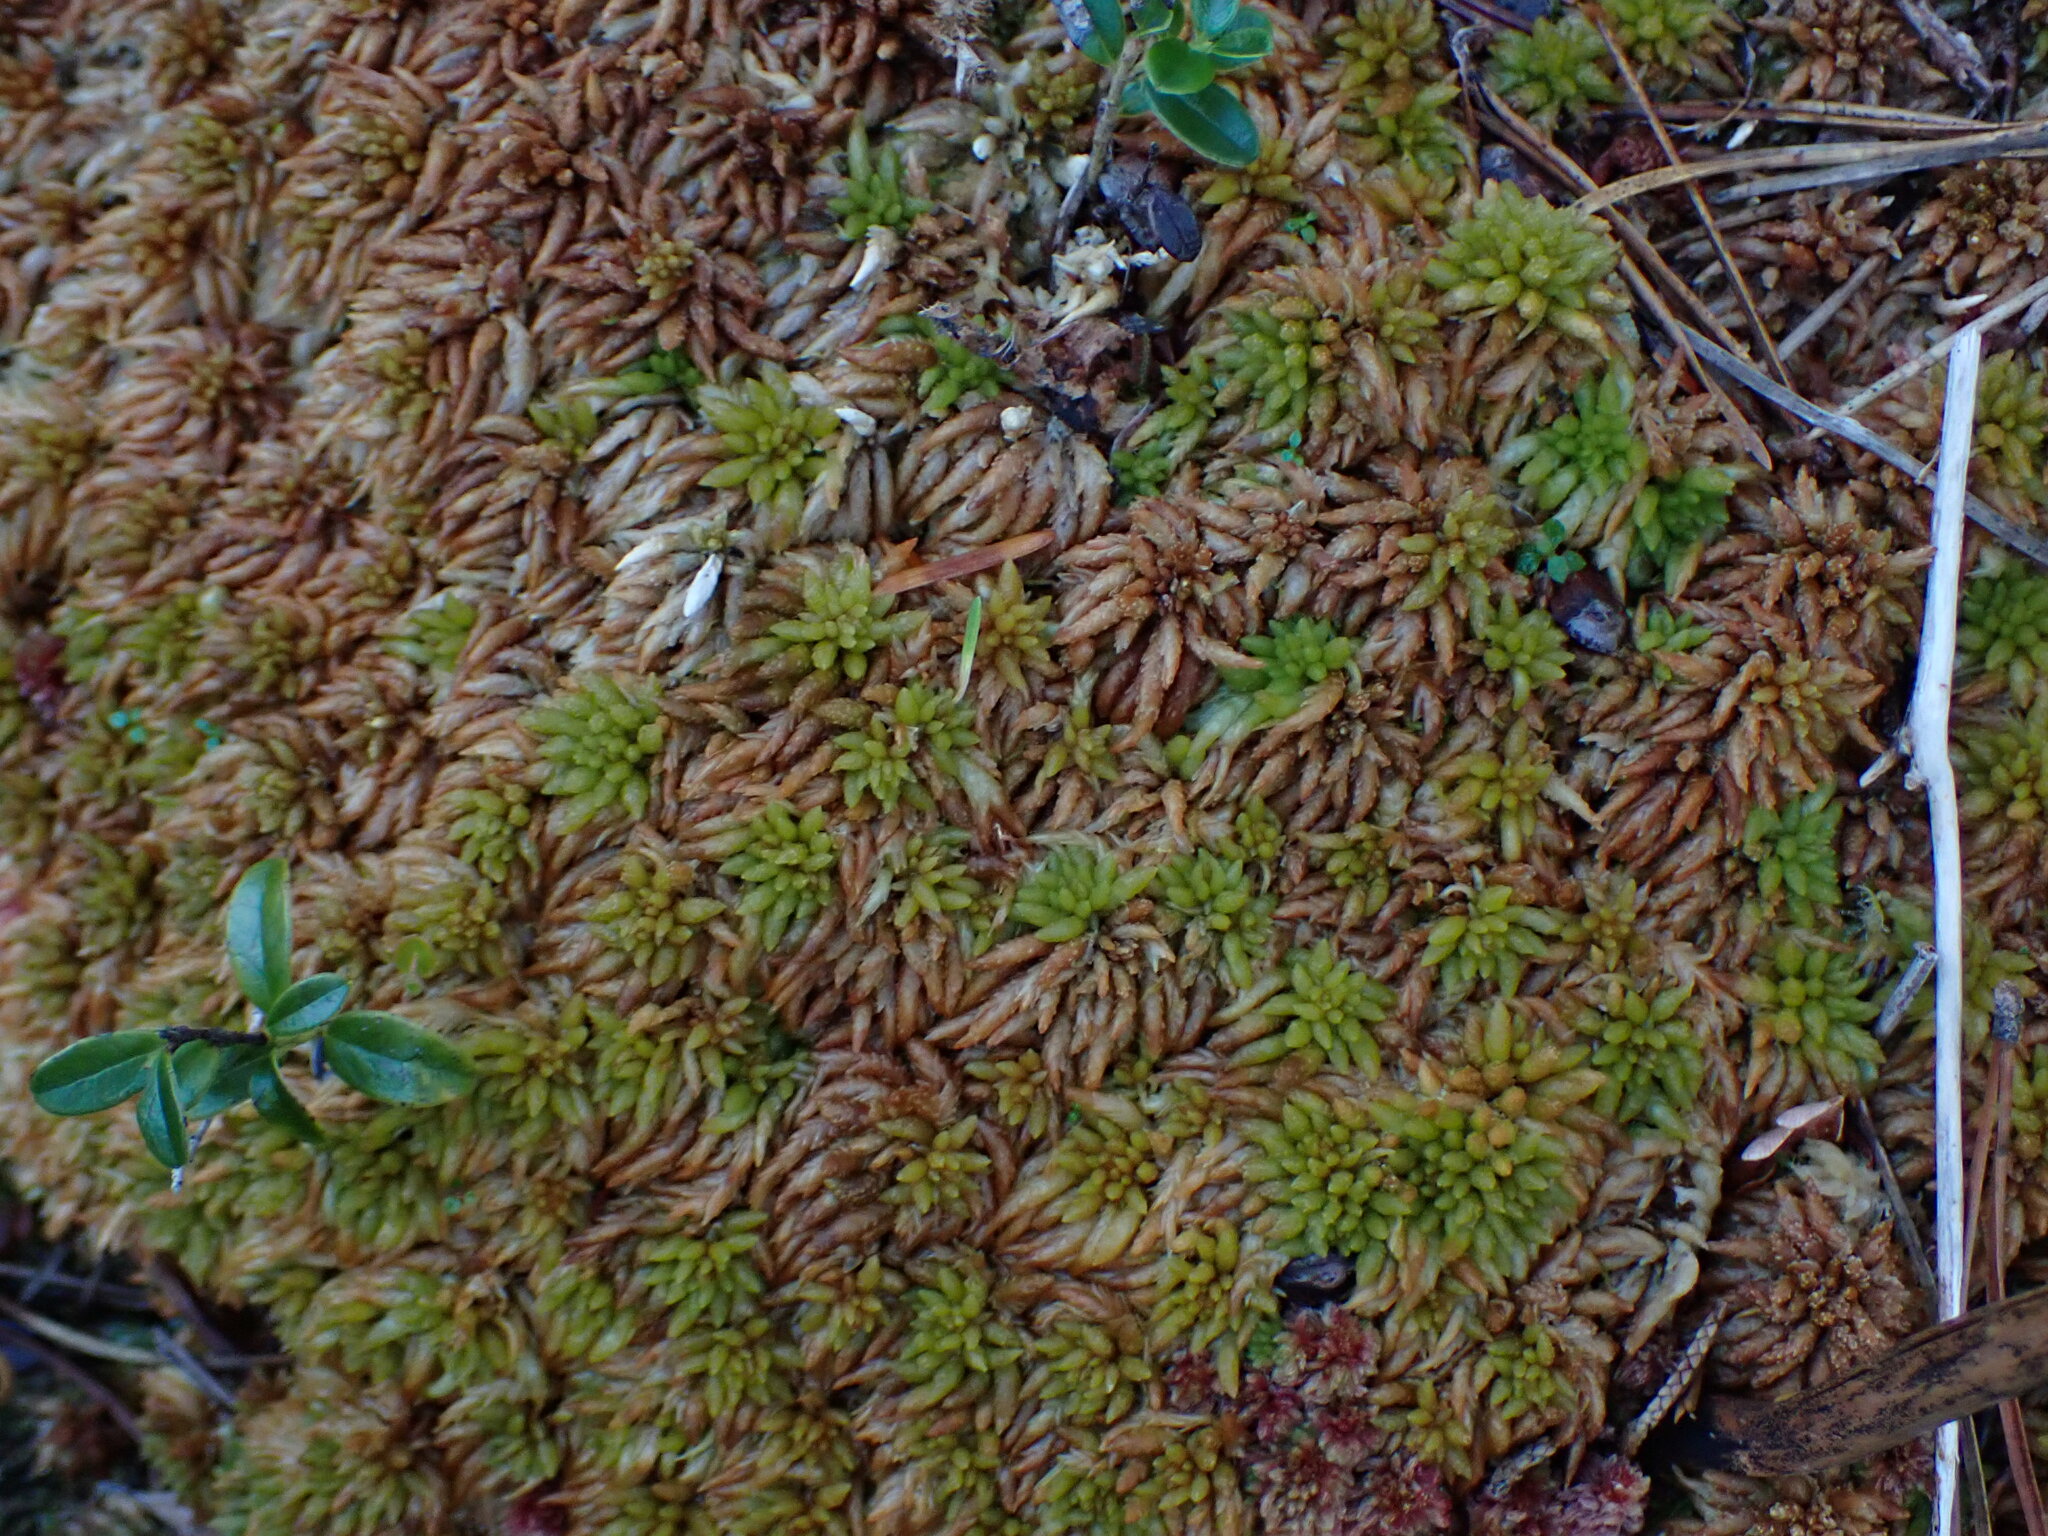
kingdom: Plantae
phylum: Bryophyta
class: Sphagnopsida
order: Sphagnales
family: Sphagnaceae
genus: Sphagnum
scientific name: Sphagnum austinii
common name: Austin's peat moss
